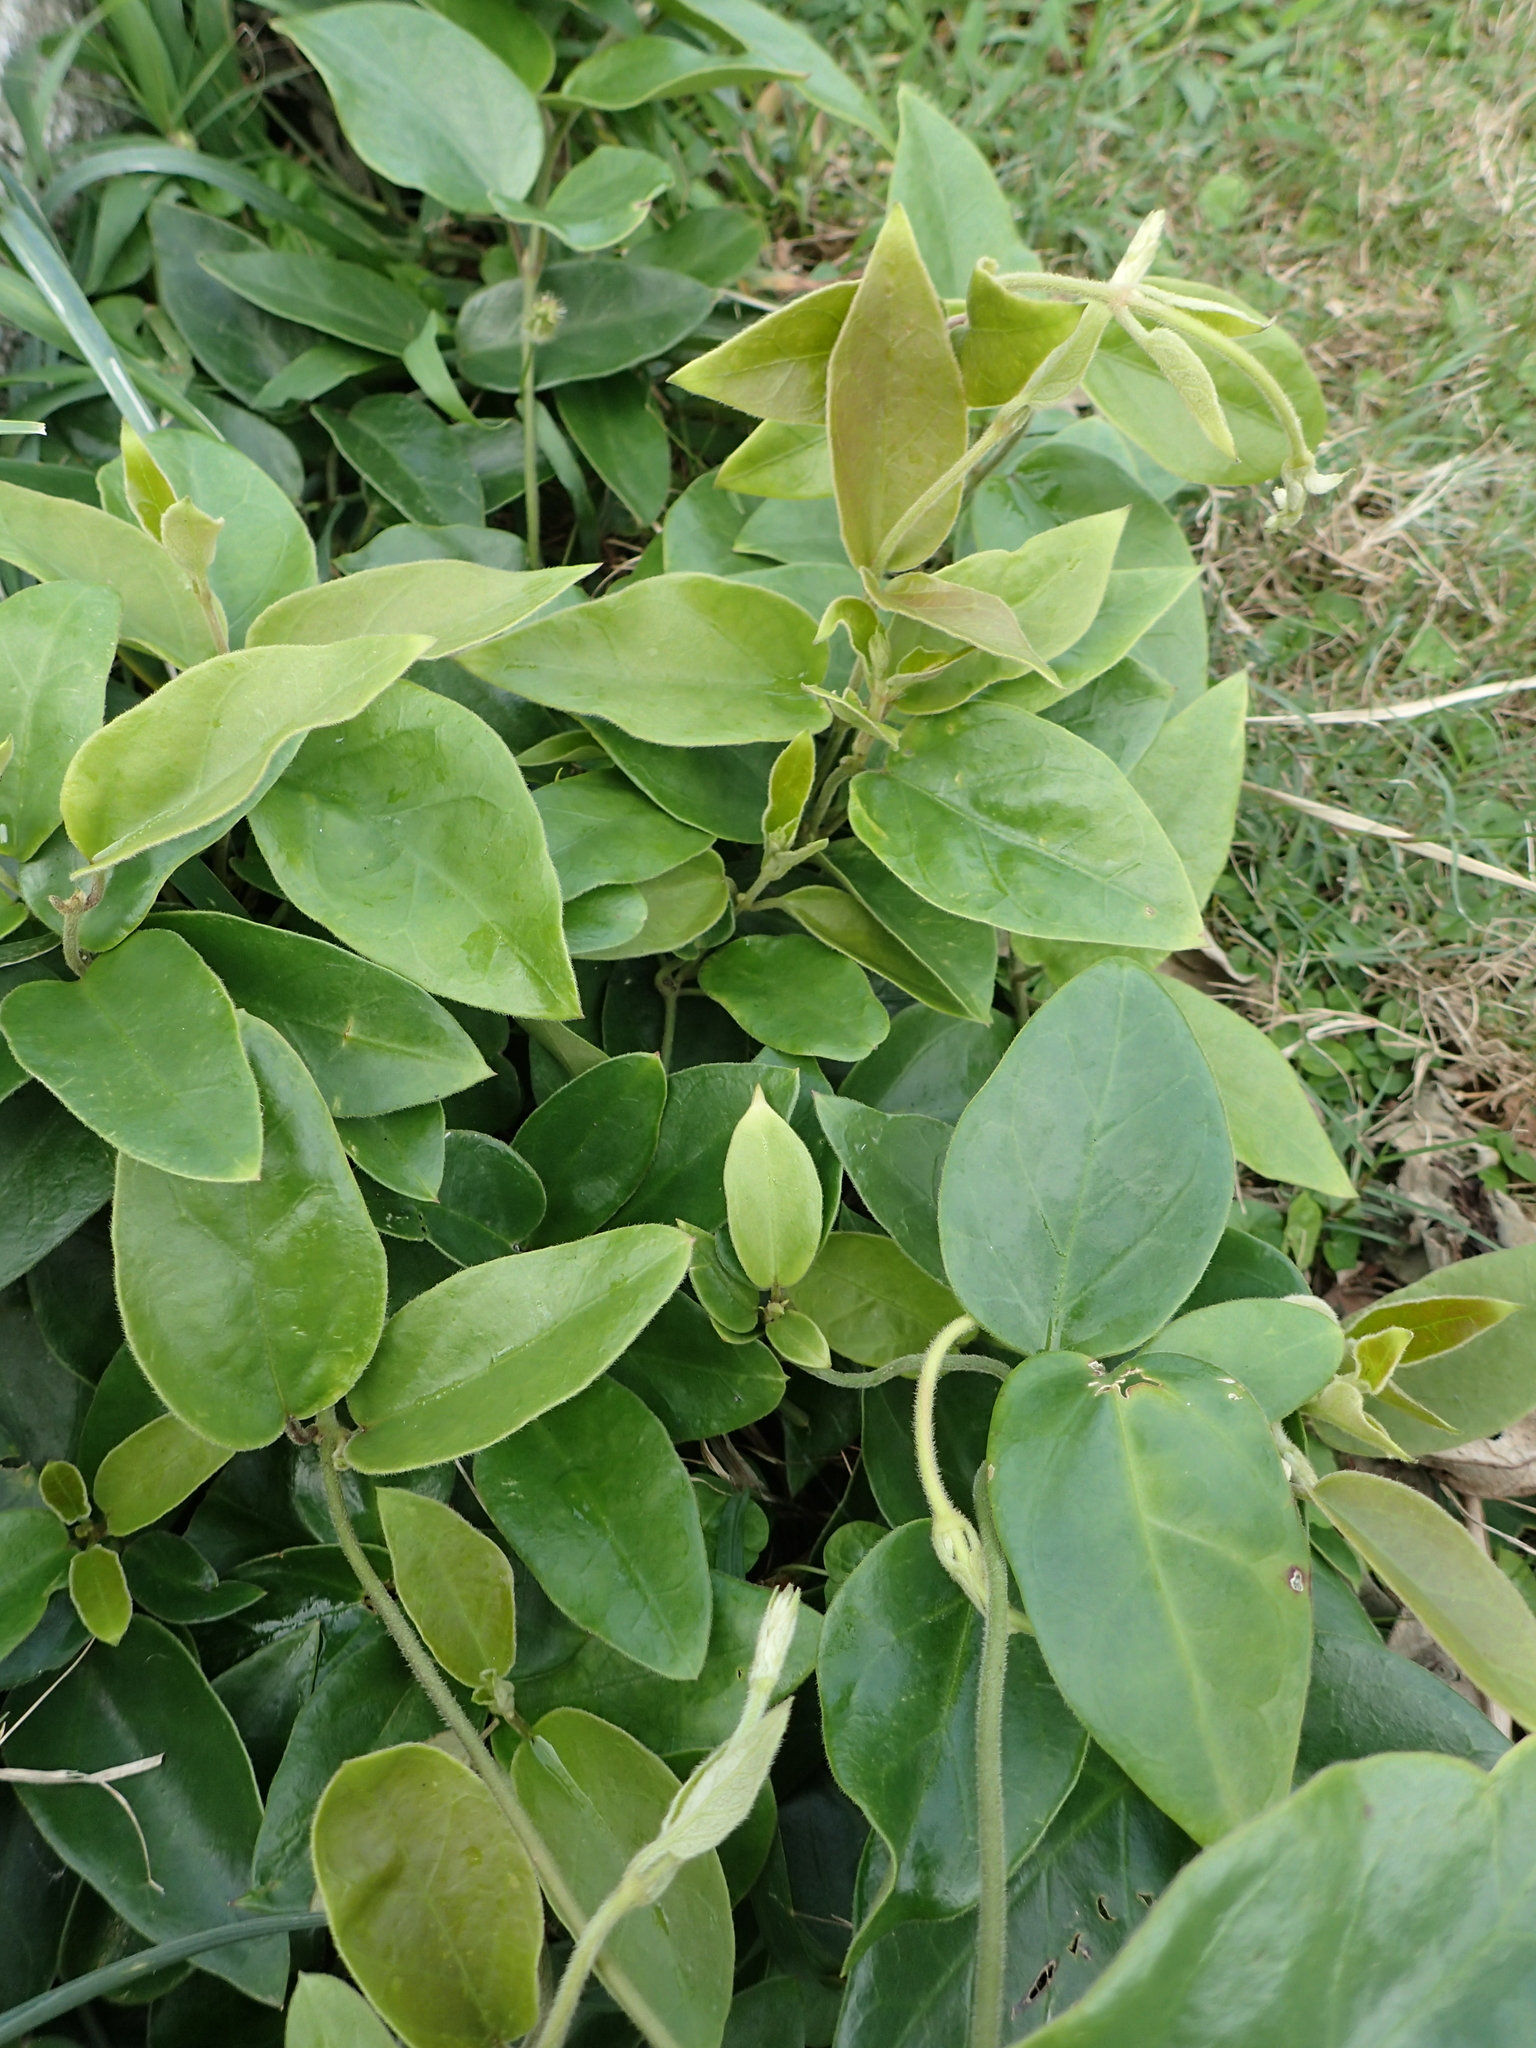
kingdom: Plantae
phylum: Tracheophyta
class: Magnoliopsida
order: Gentianales
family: Apocynaceae
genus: Vincetoxicum
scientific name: Vincetoxicum hirsutum
